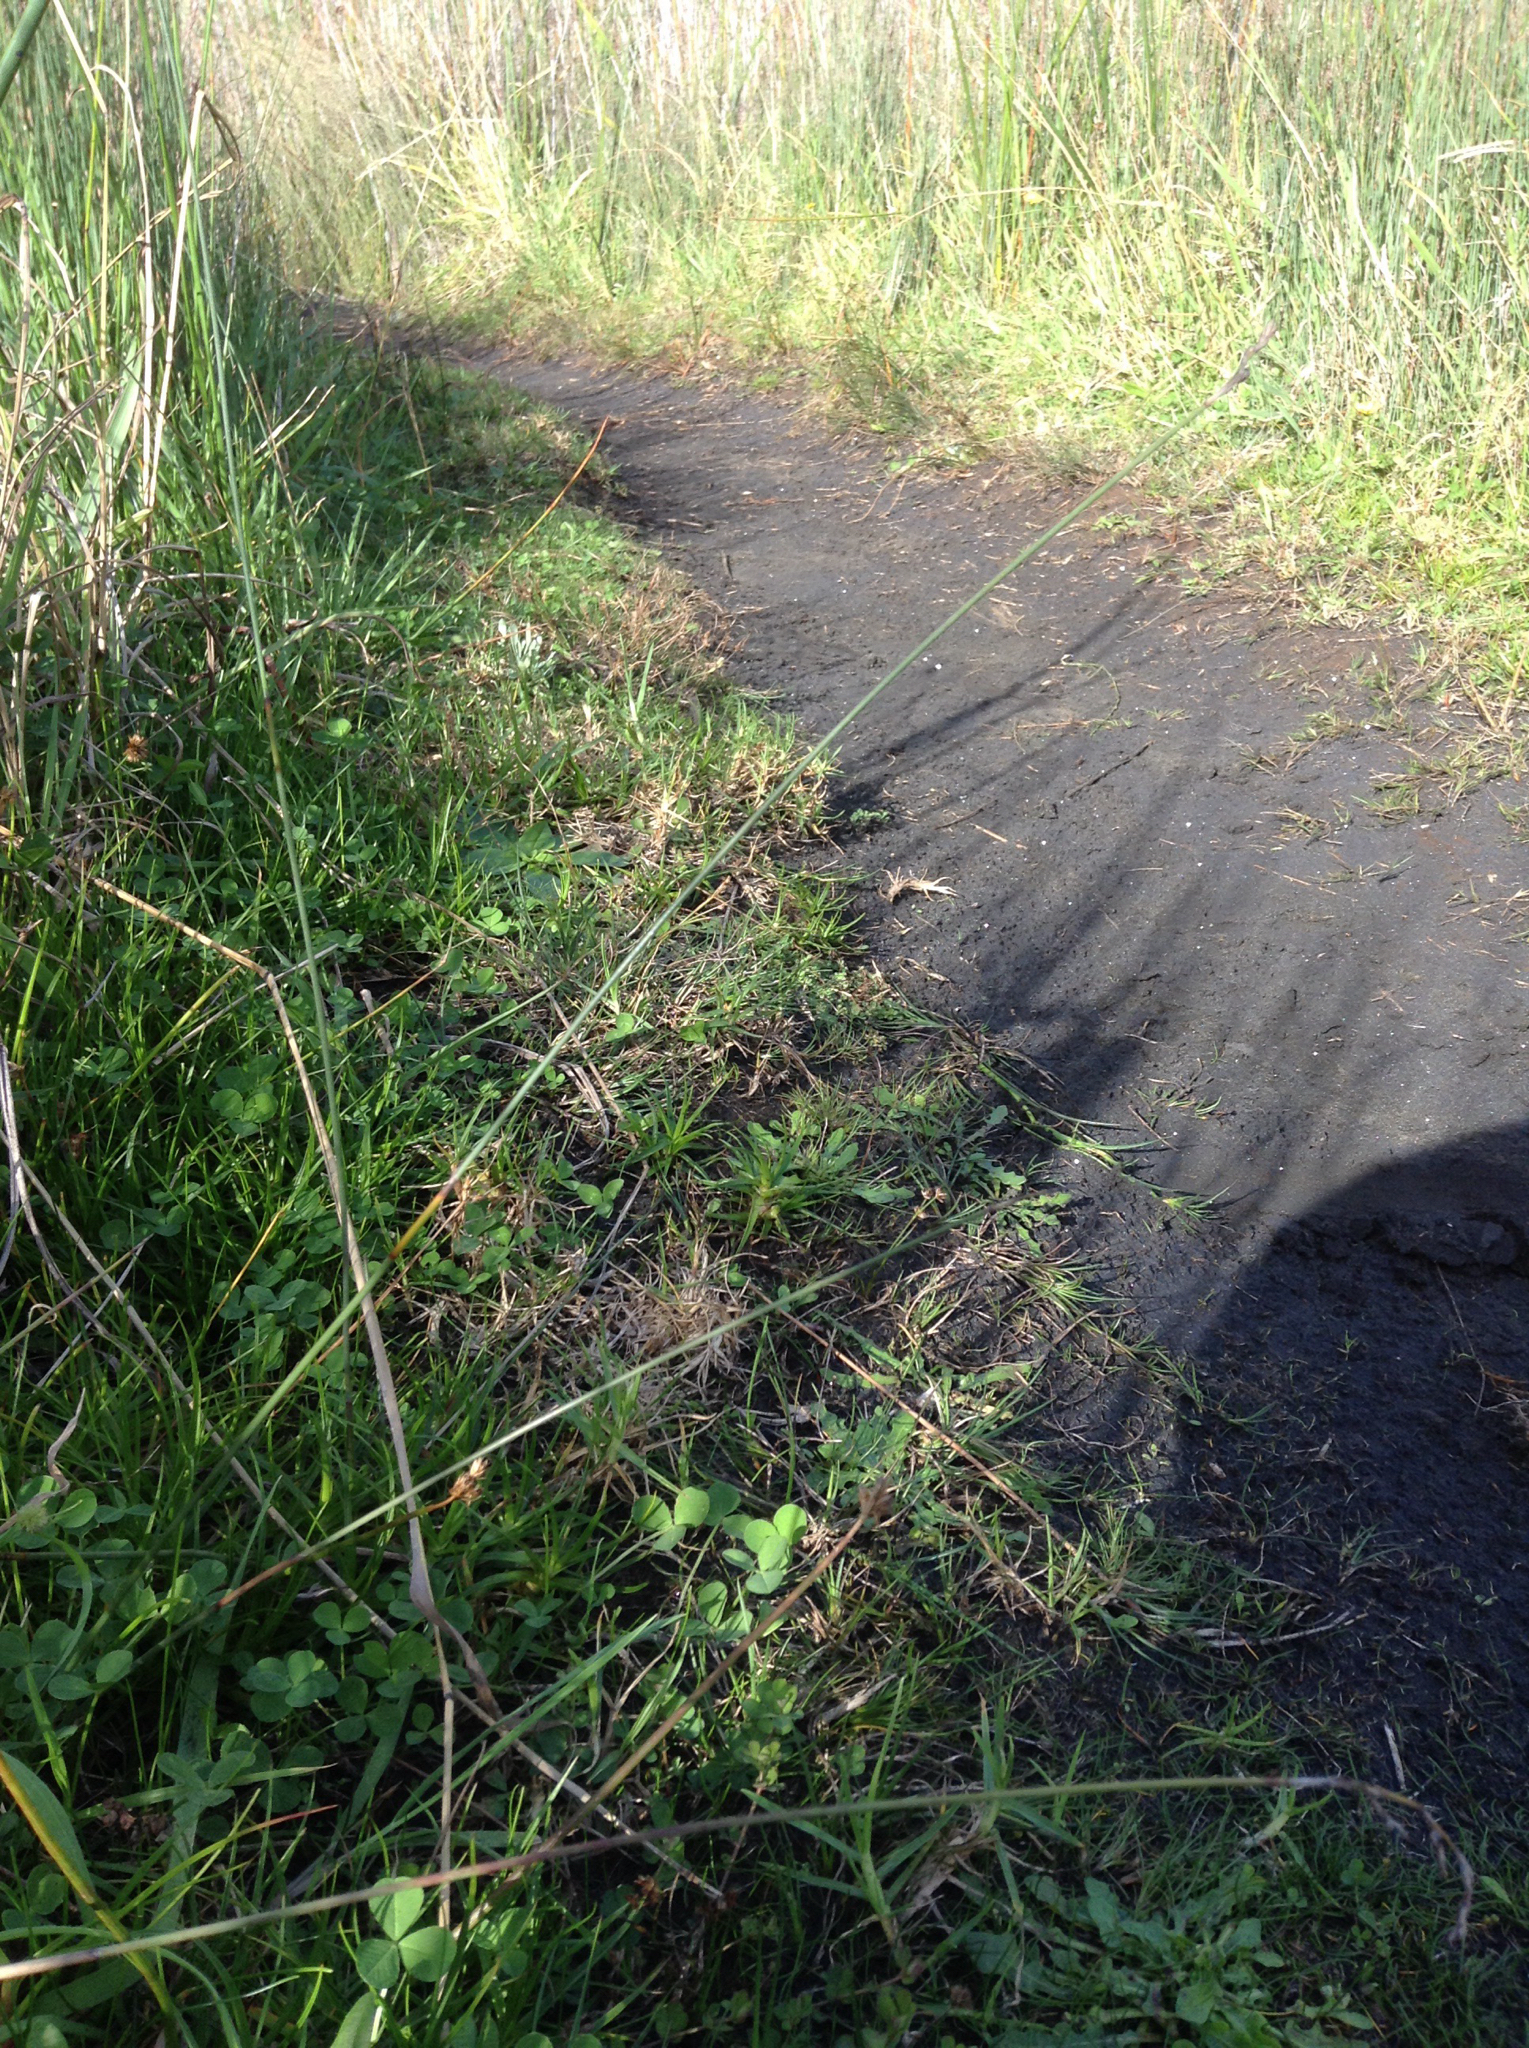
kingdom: Plantae
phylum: Tracheophyta
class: Liliopsida
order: Poales
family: Cyperaceae
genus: Machaerina
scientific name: Machaerina juncea
